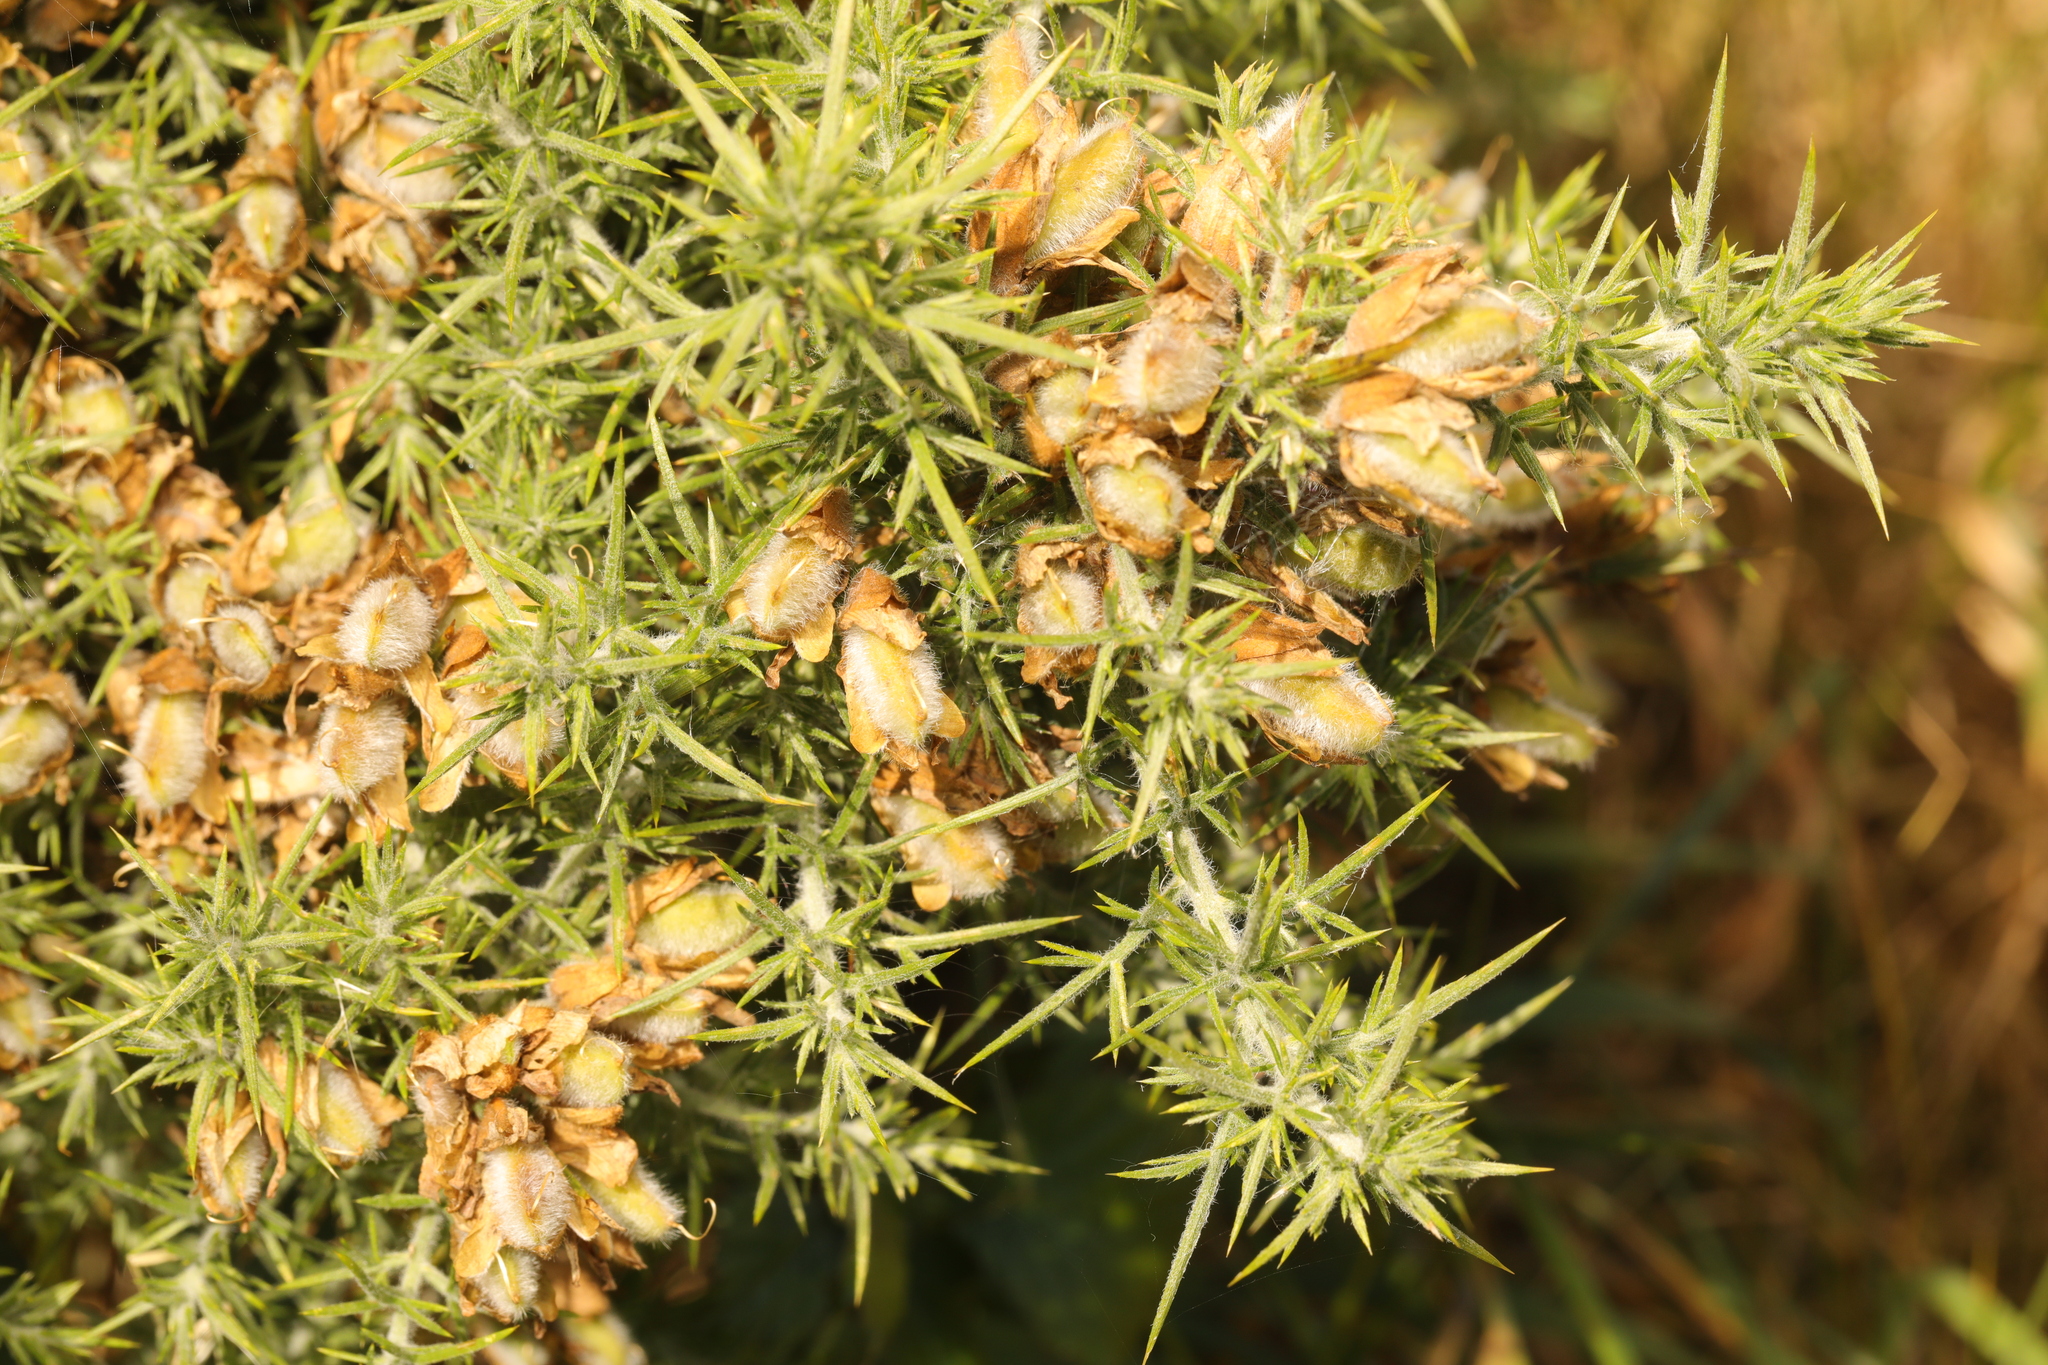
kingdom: Plantae
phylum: Tracheophyta
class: Magnoliopsida
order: Fabales
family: Fabaceae
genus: Ulex
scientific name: Ulex europaeus
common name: Common gorse
